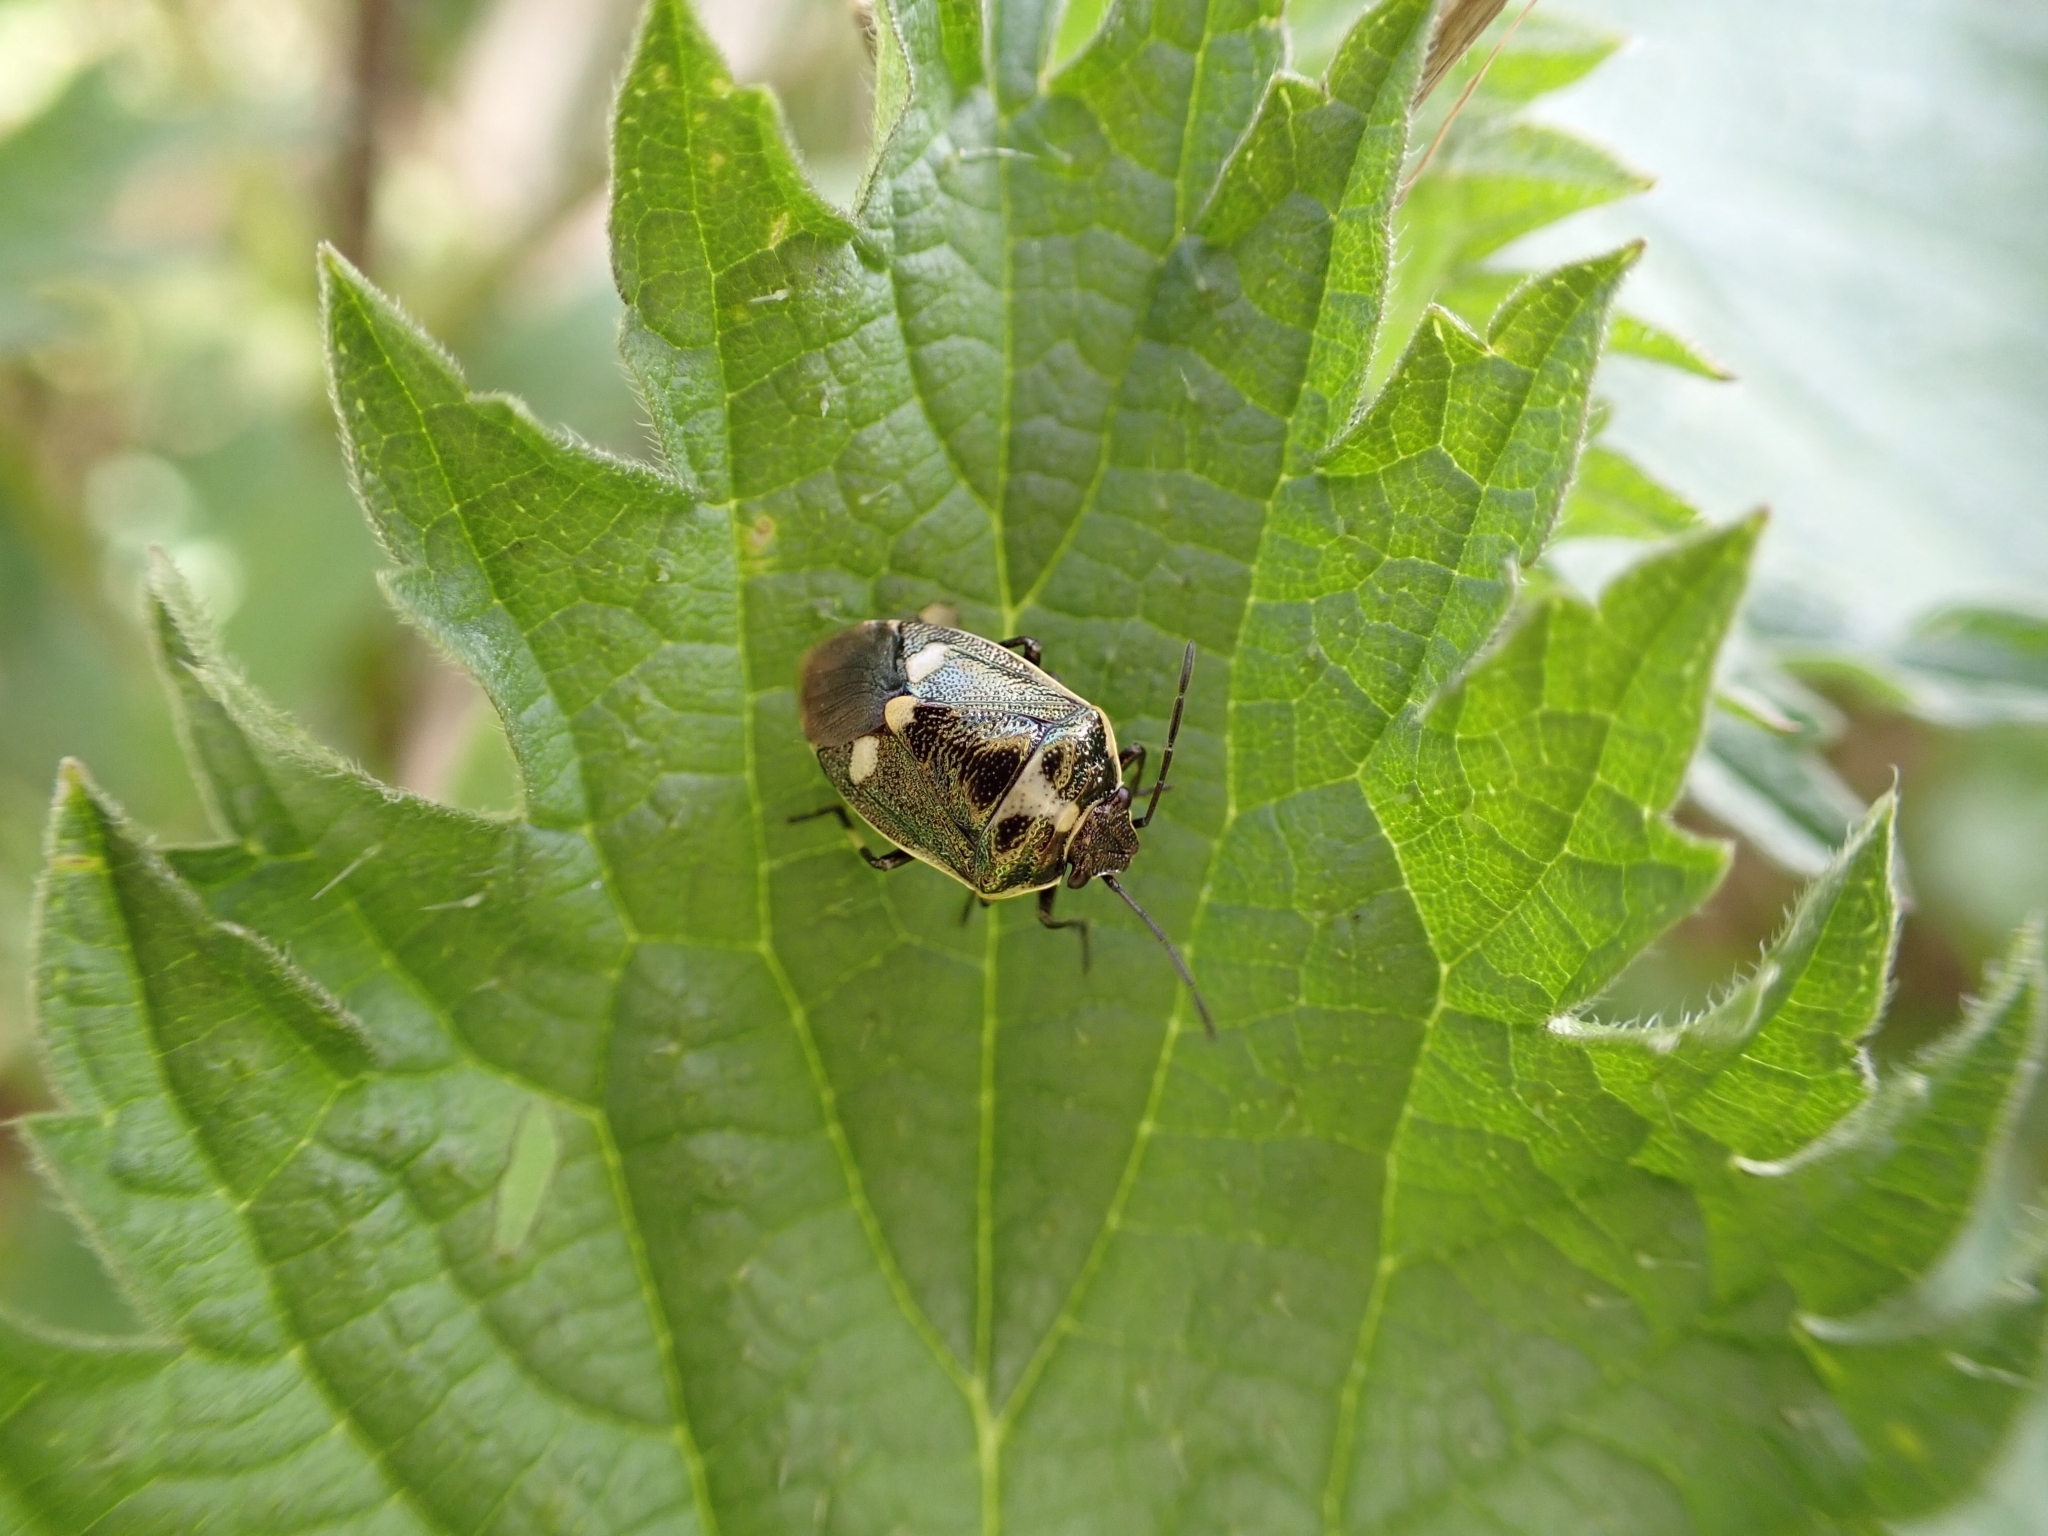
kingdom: Animalia
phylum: Arthropoda
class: Insecta
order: Hemiptera
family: Pentatomidae
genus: Eurydema
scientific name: Eurydema oleracea
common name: Cabbage bug
